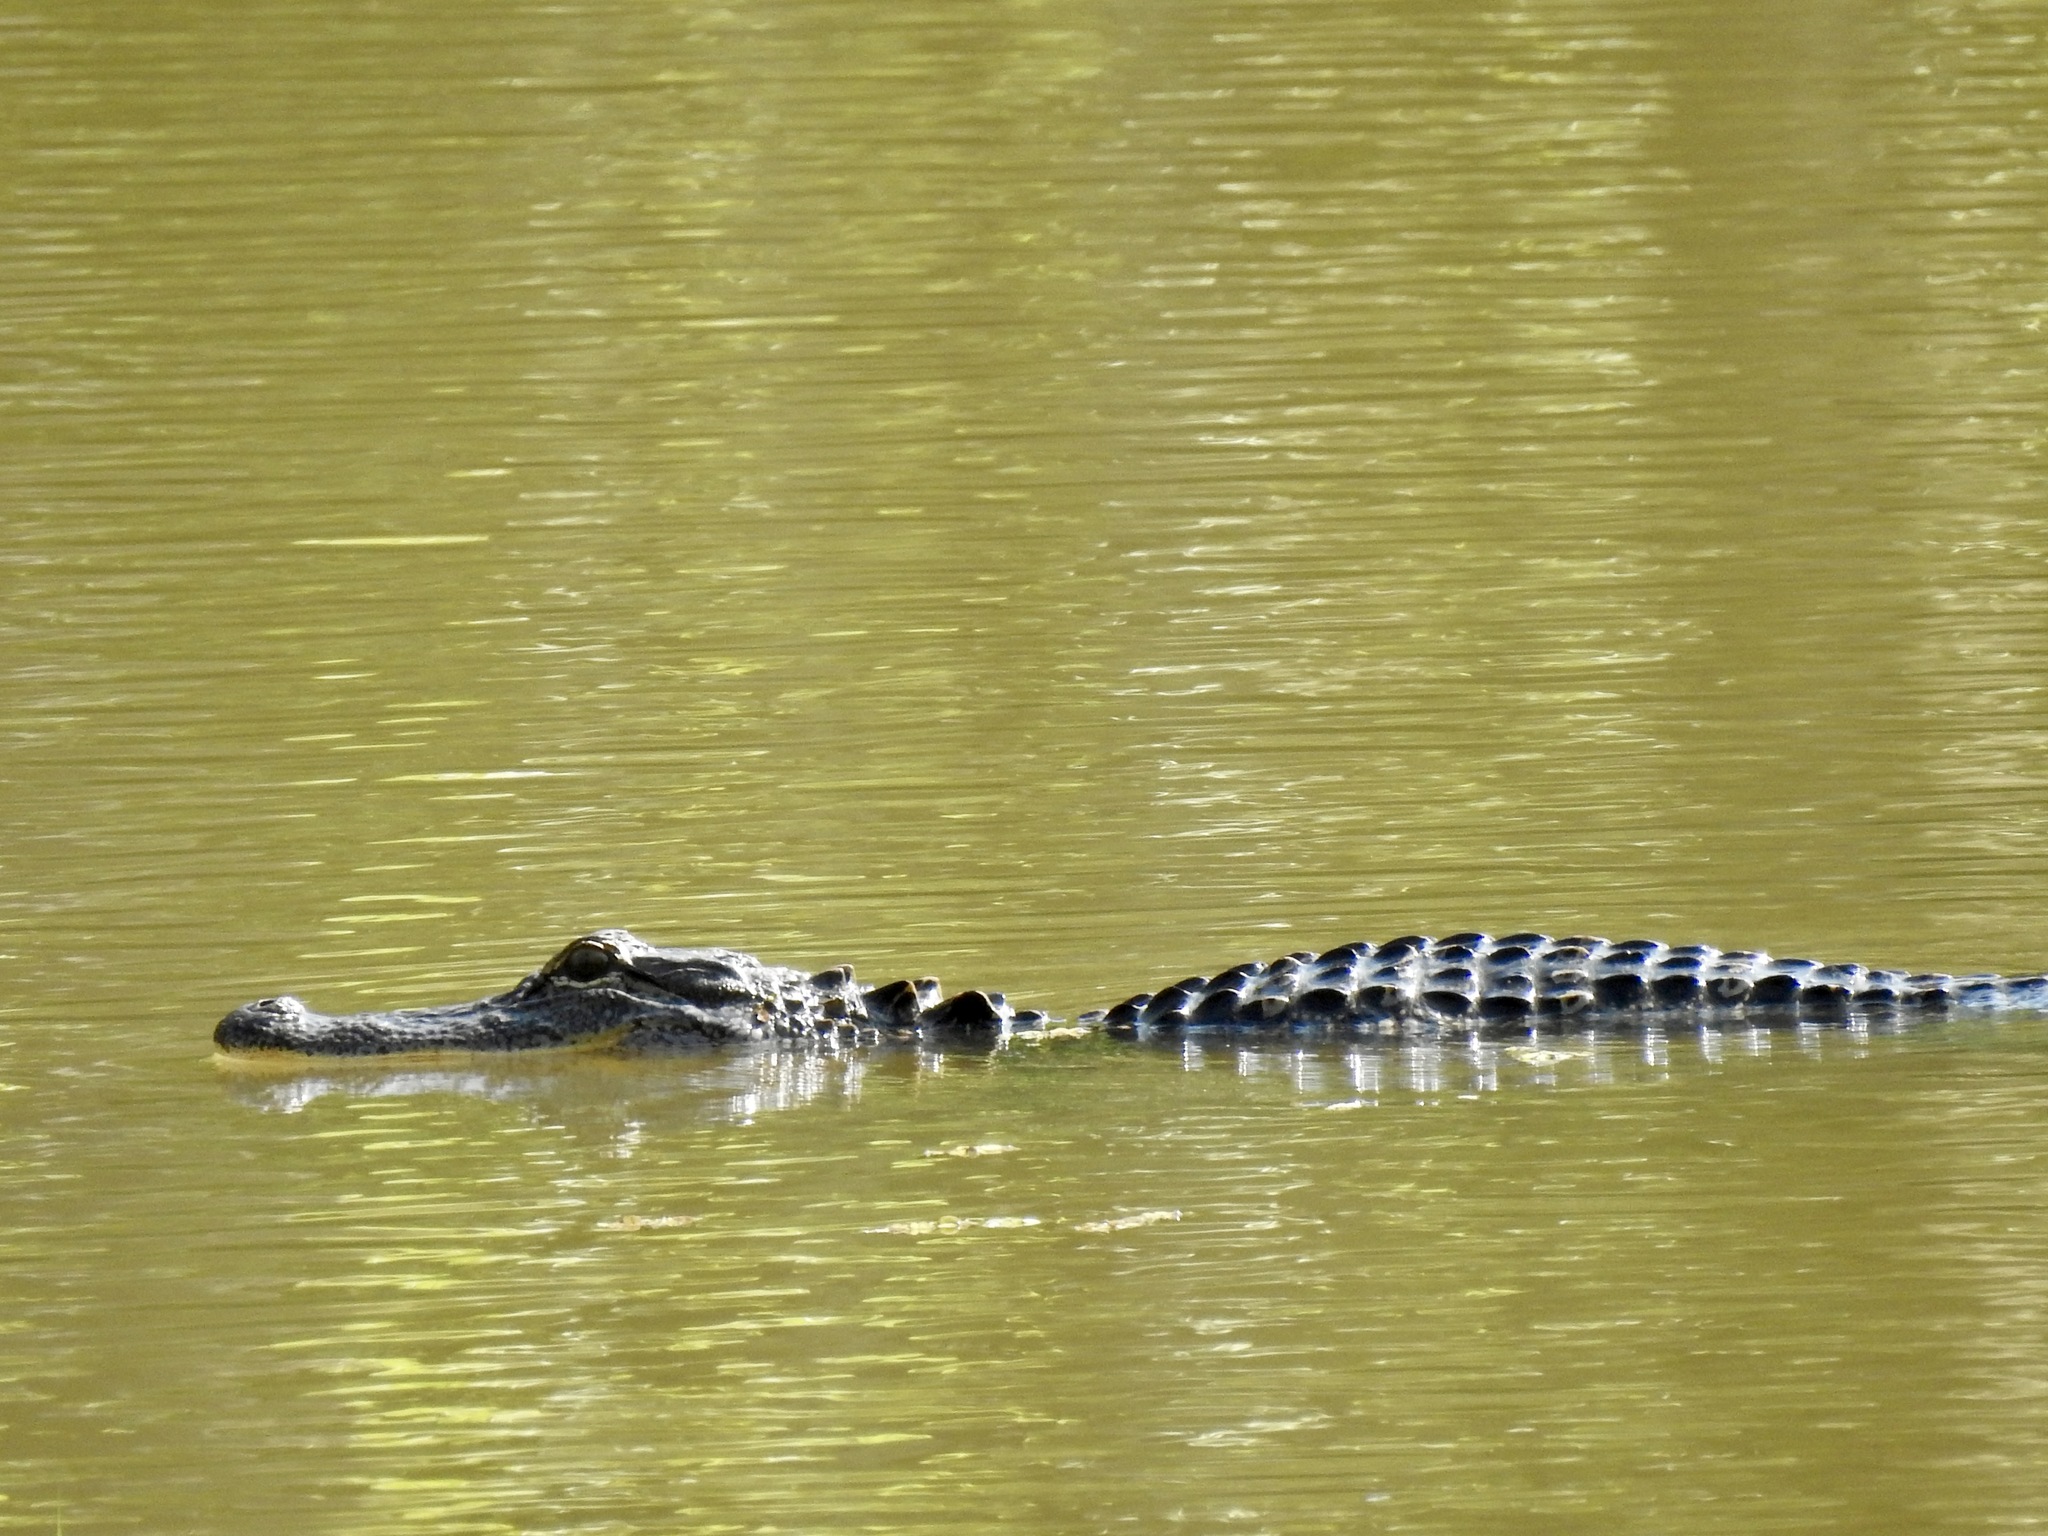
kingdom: Animalia
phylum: Chordata
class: Crocodylia
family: Alligatoridae
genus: Alligator
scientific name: Alligator mississippiensis
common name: American alligator
